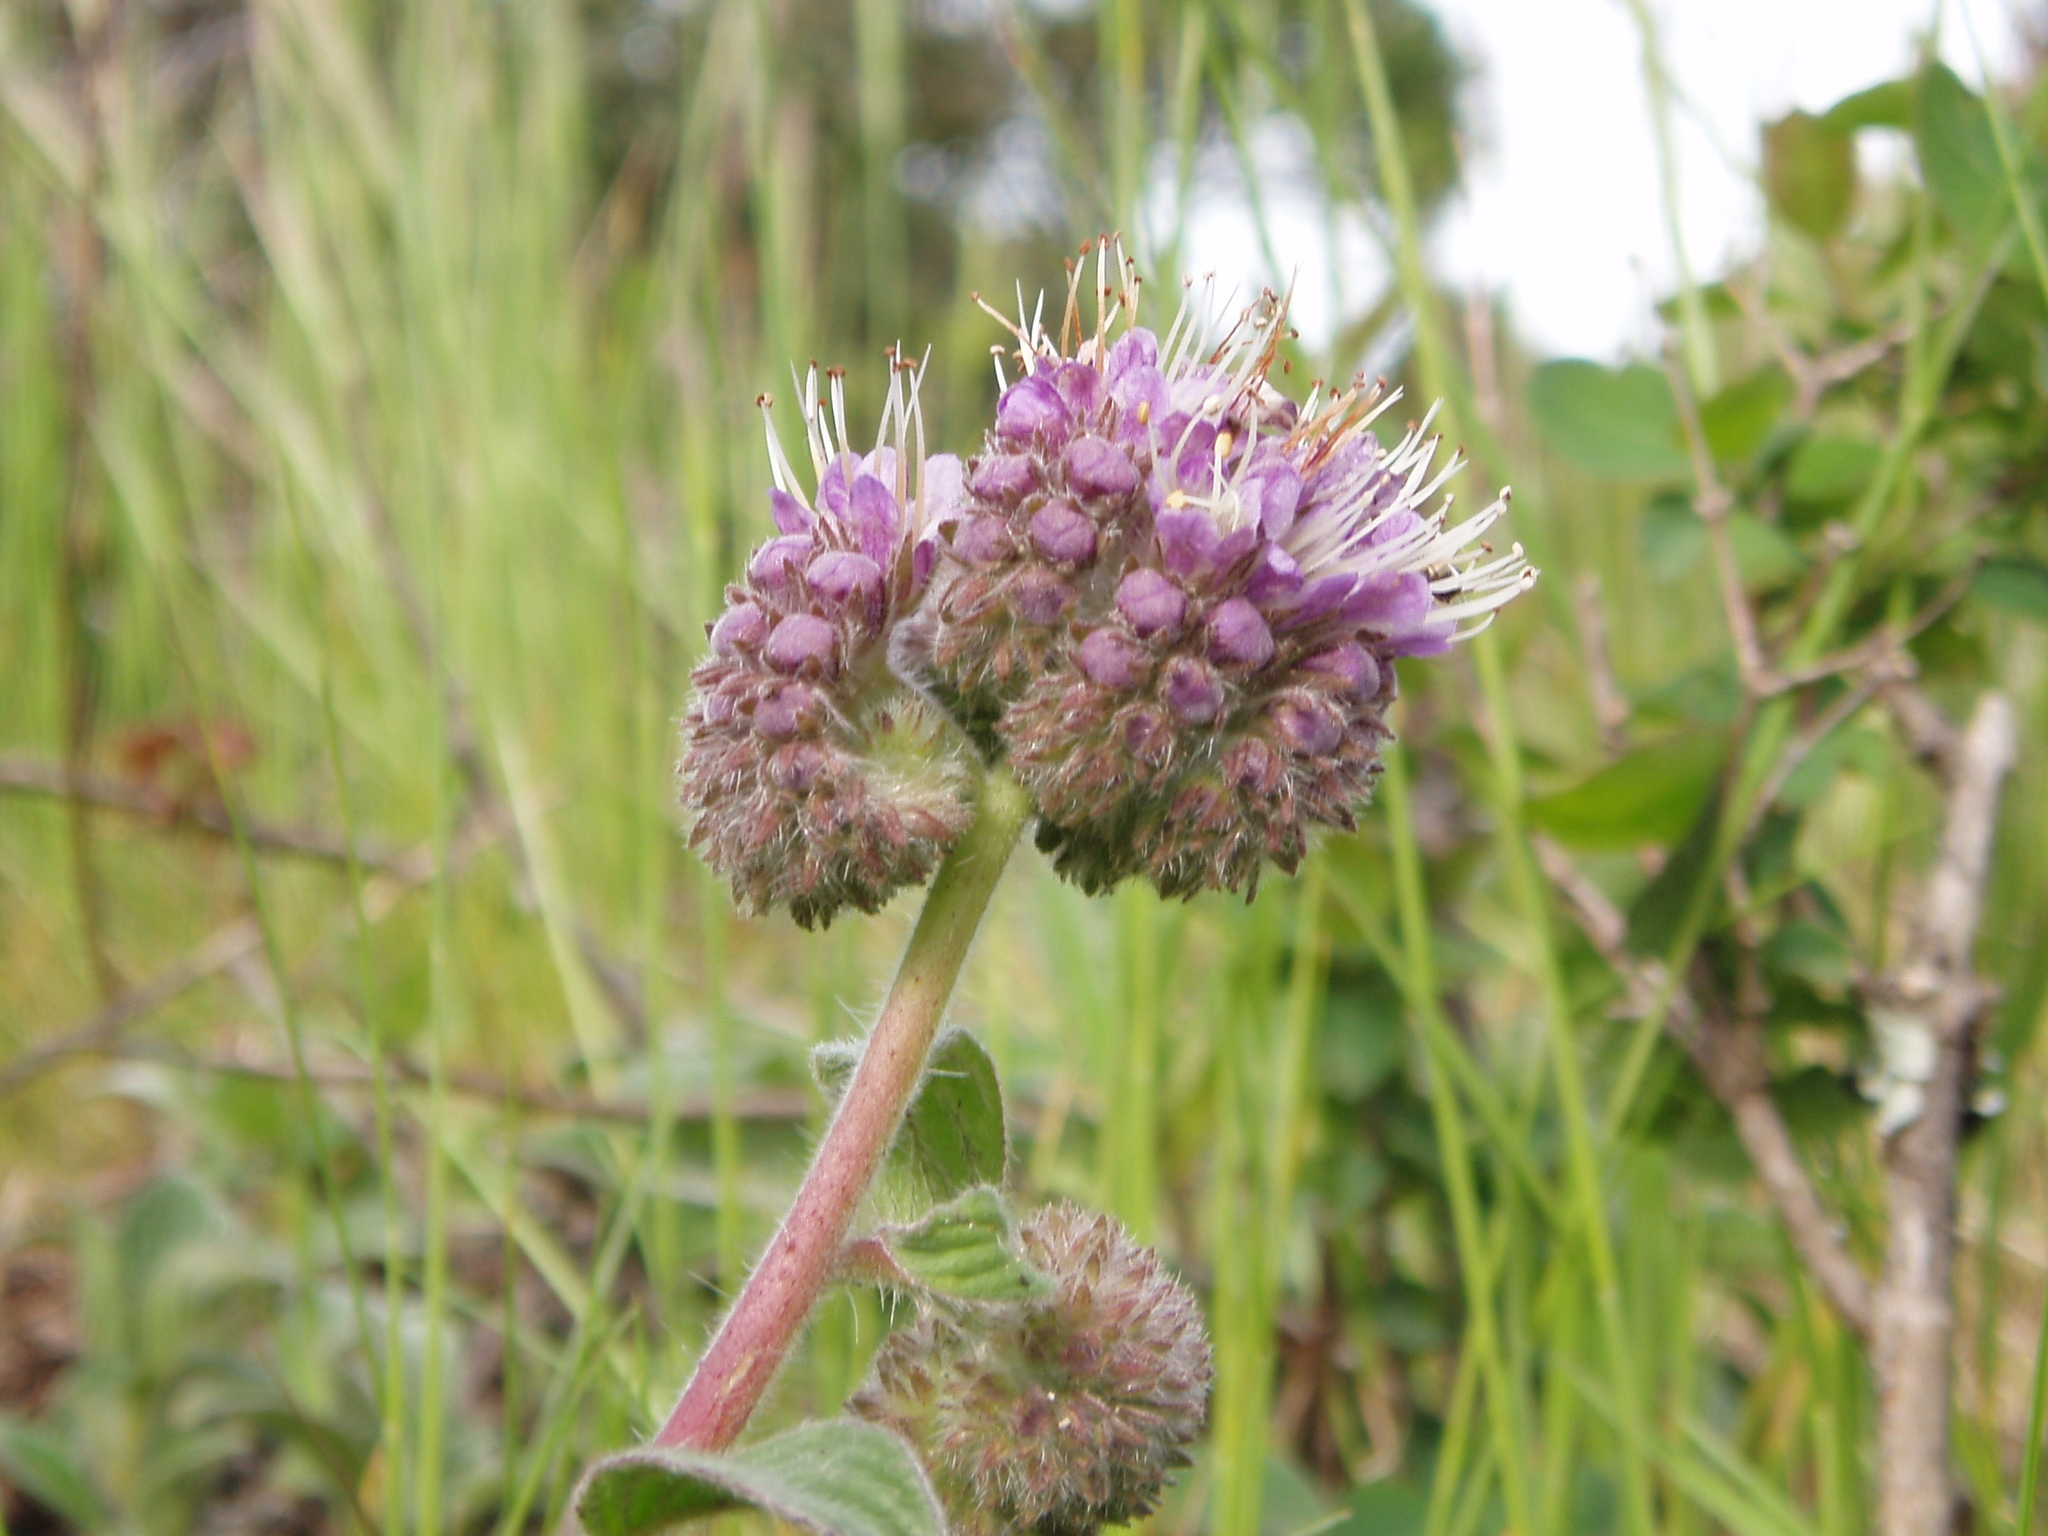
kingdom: Plantae
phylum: Tracheophyta
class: Magnoliopsida
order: Boraginales
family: Hydrophyllaceae
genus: Phacelia
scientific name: Phacelia californica
